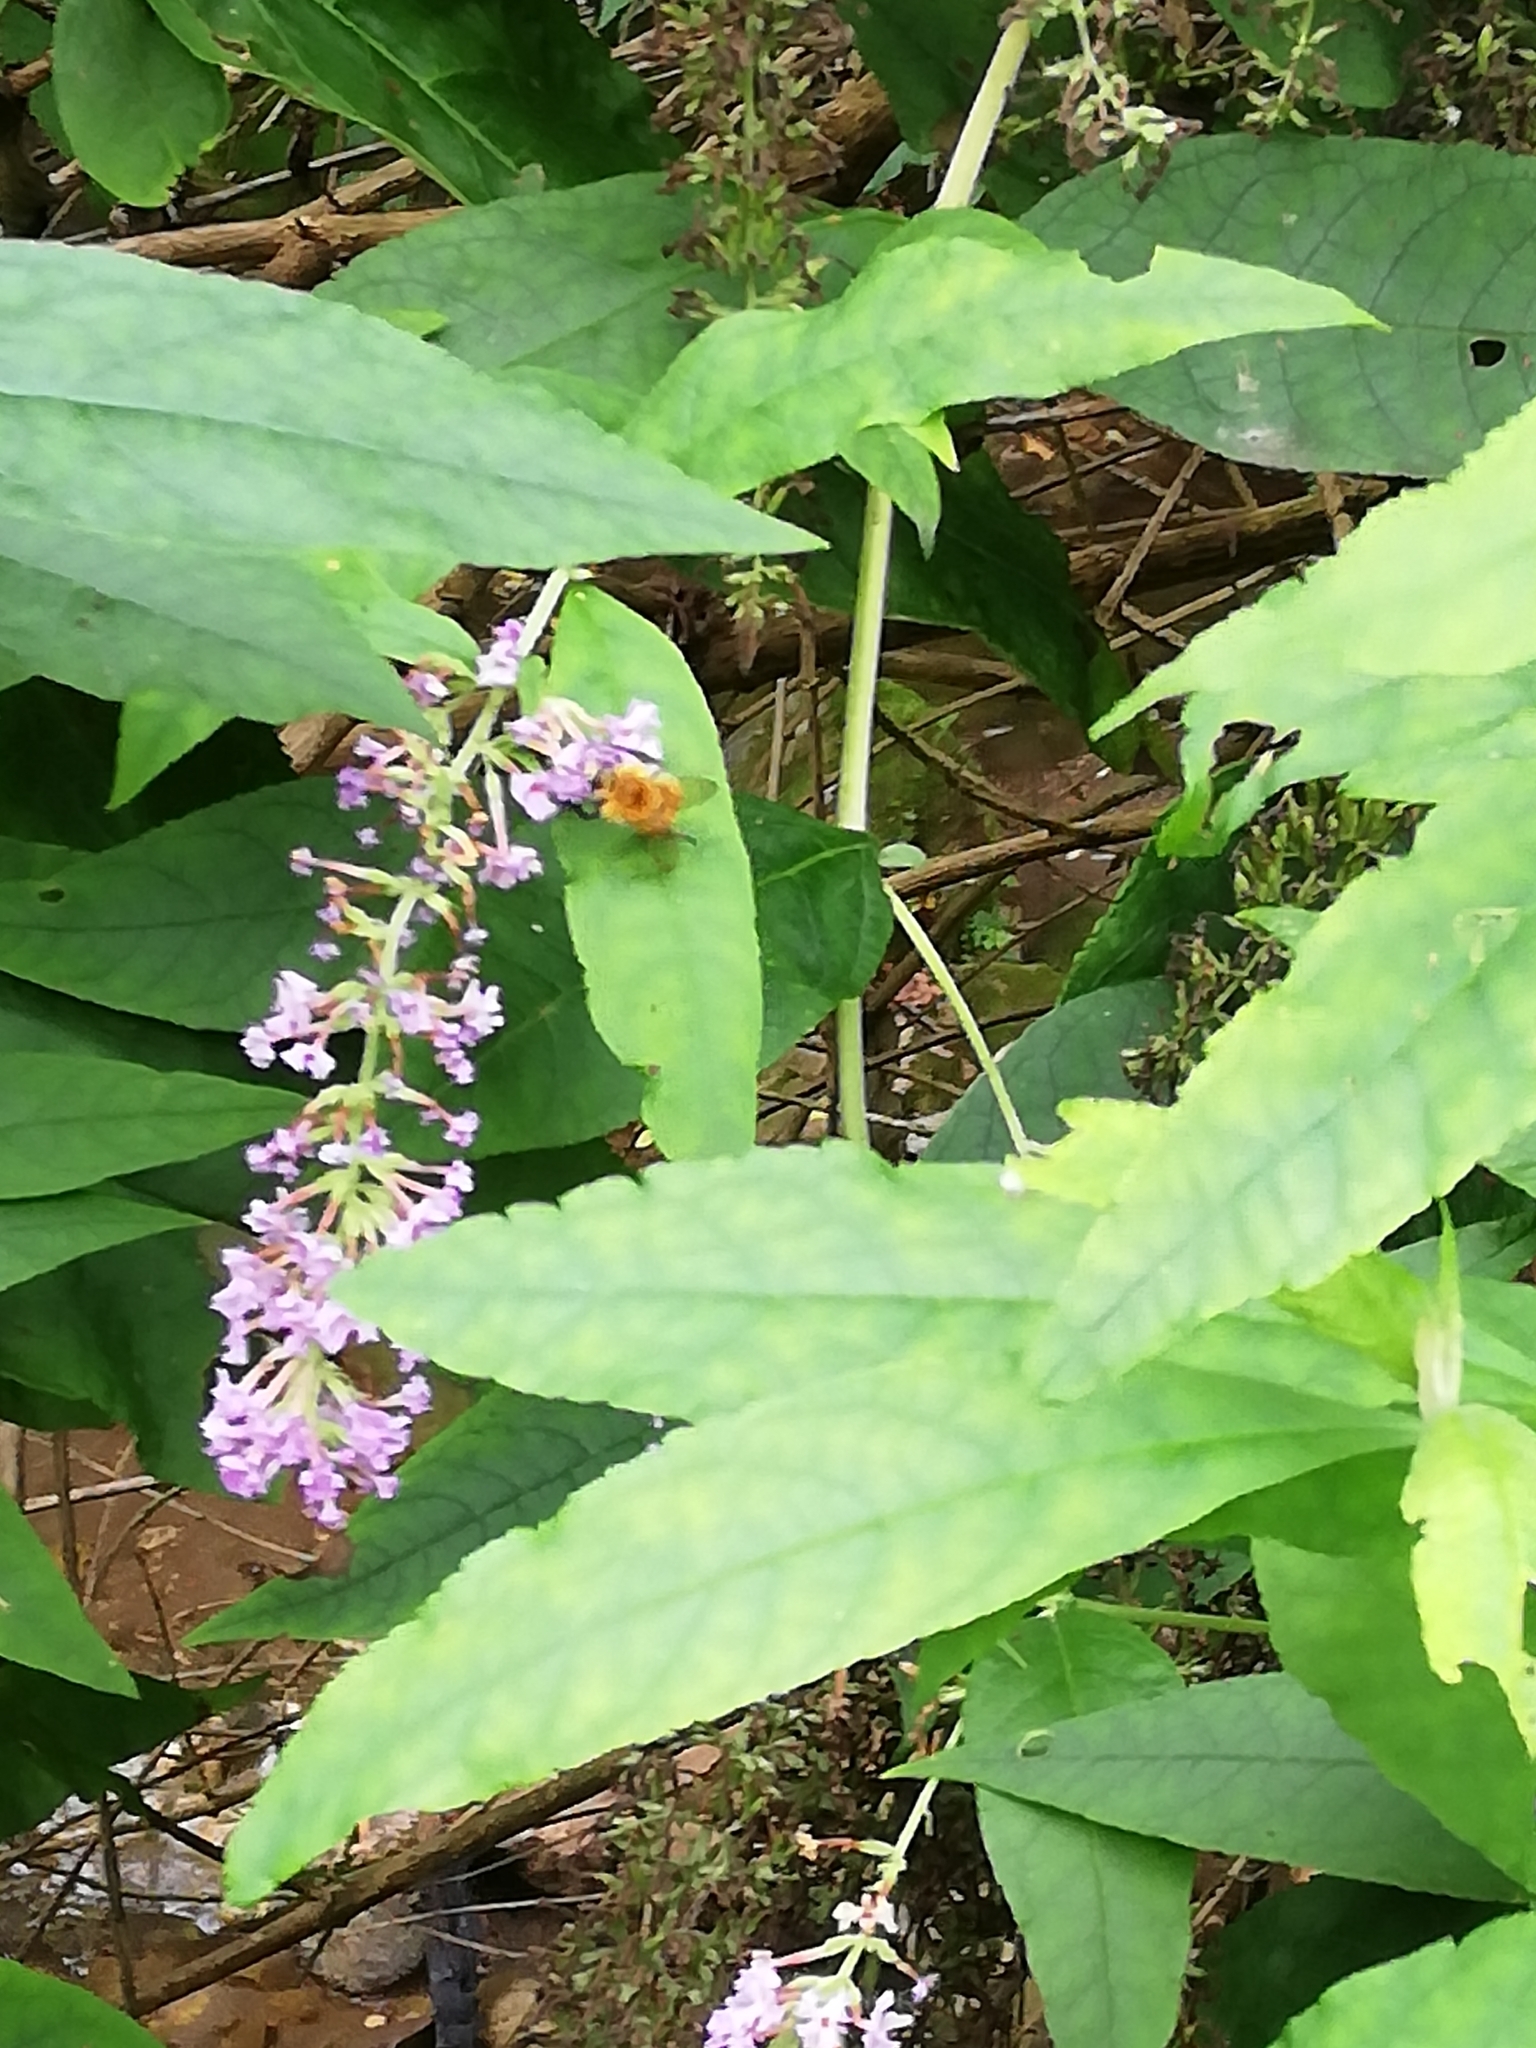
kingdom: Plantae
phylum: Tracheophyta
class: Magnoliopsida
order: Lamiales
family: Scrophulariaceae
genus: Buddleja
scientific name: Buddleja davidii
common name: Butterfly-bush
